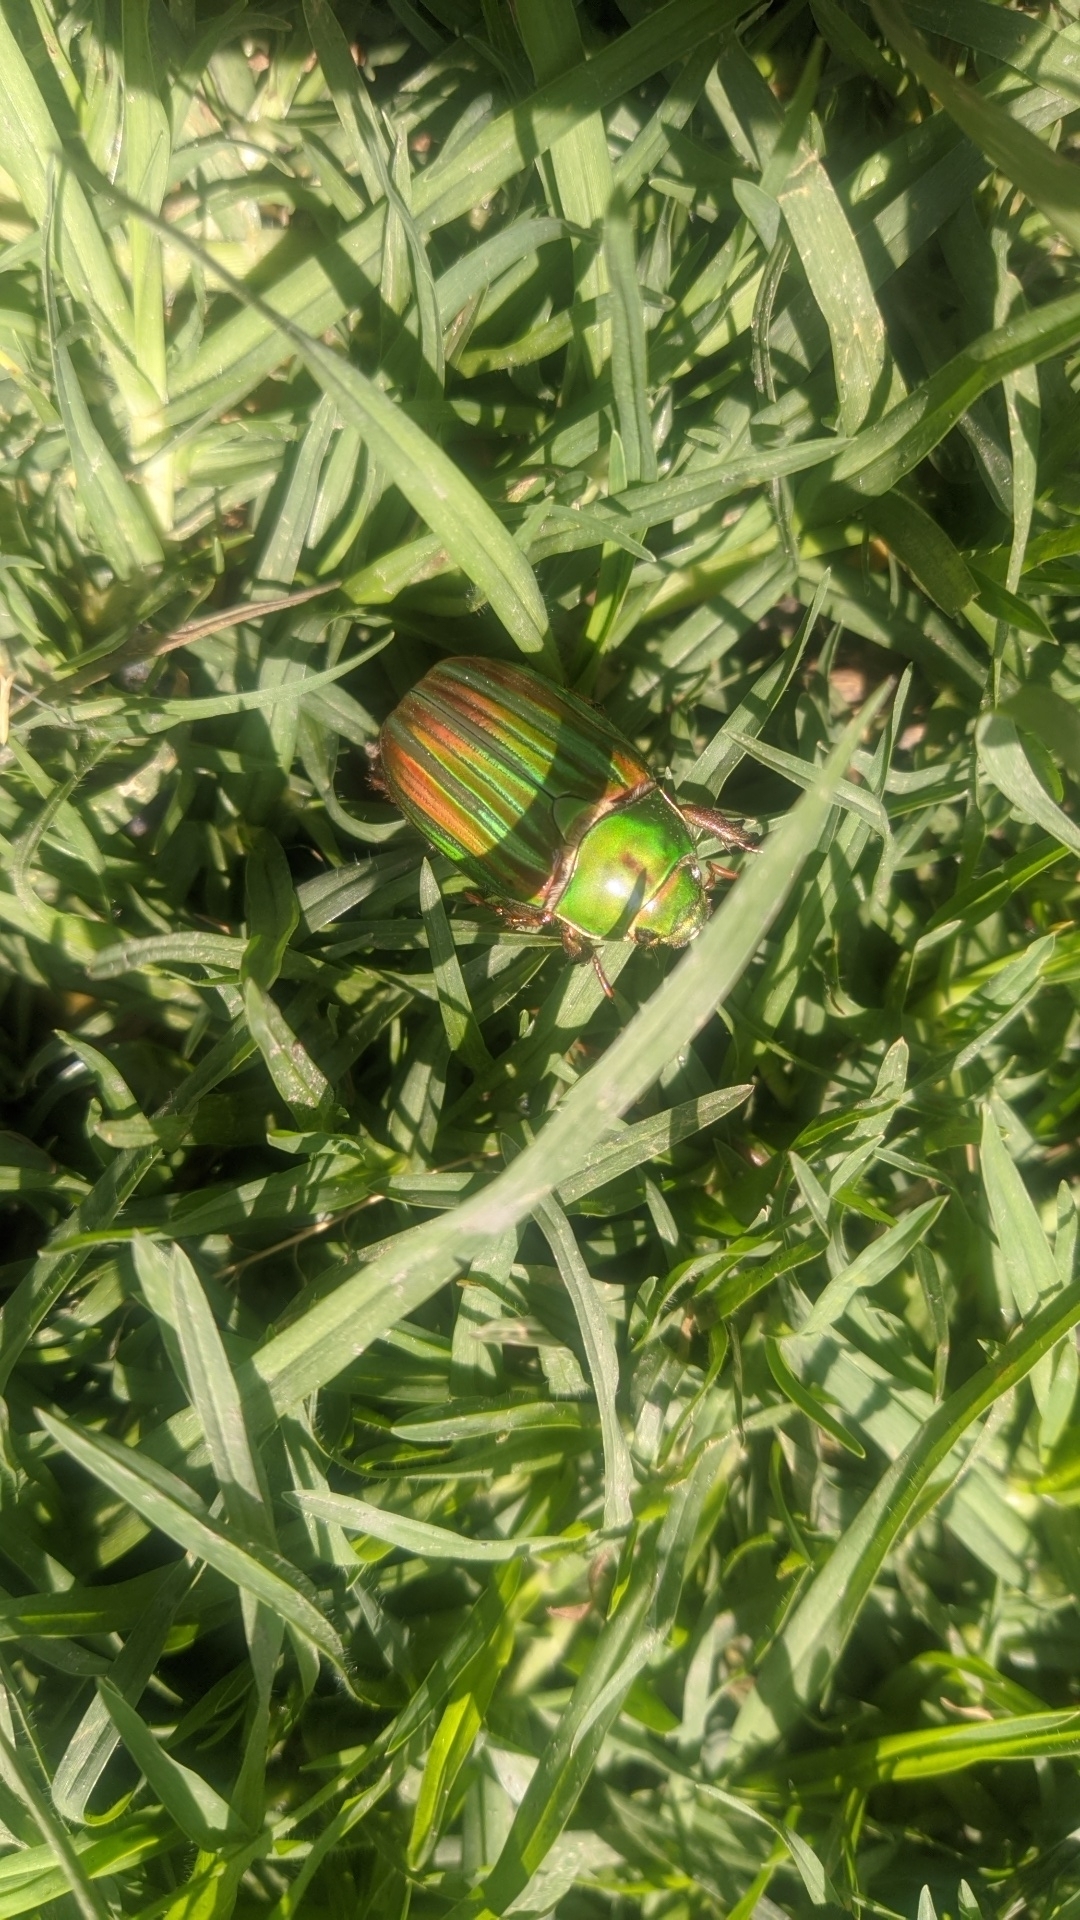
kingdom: Animalia
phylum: Arthropoda
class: Insecta
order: Coleoptera
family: Scarabaeidae
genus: Chrysina
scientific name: Chrysina adelaida
